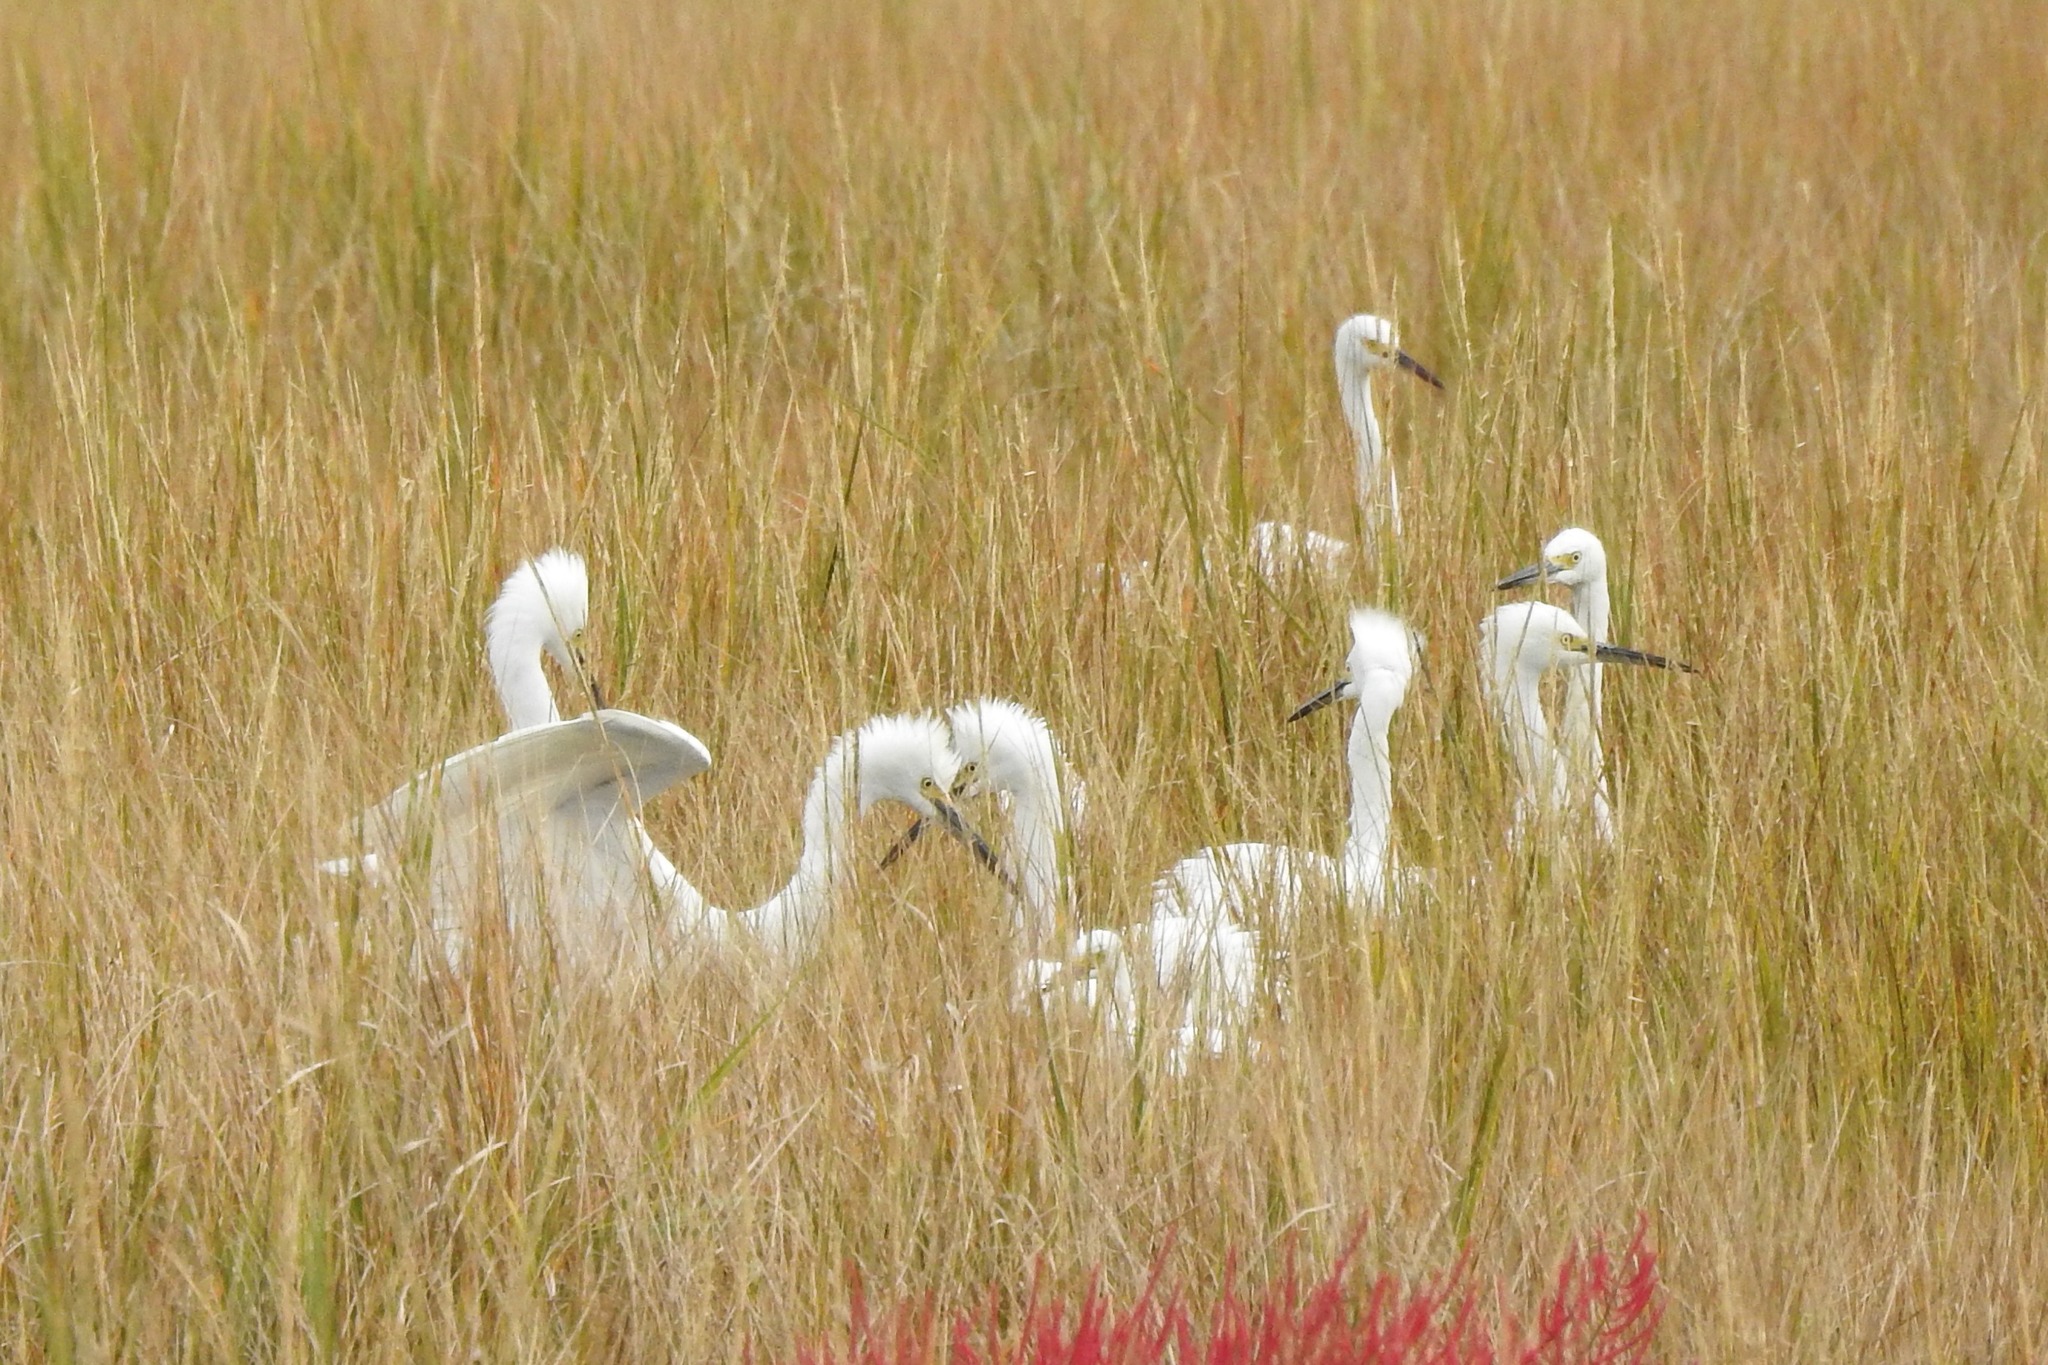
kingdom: Animalia
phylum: Chordata
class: Aves
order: Pelecaniformes
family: Ardeidae
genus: Egretta
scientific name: Egretta thula
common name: Snowy egret
